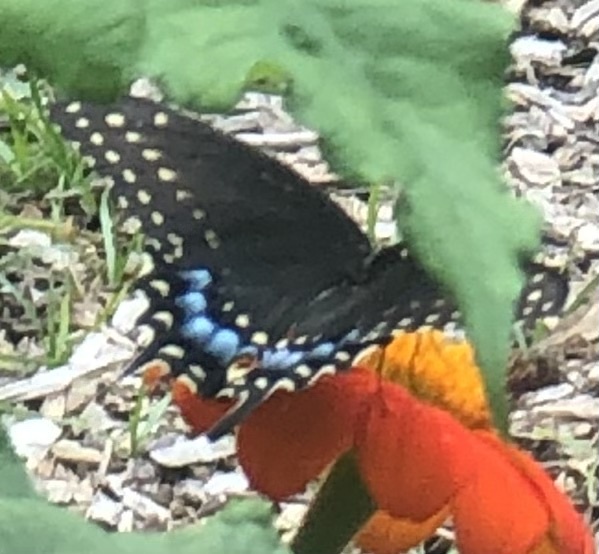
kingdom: Animalia
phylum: Arthropoda
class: Insecta
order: Lepidoptera
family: Papilionidae
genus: Papilio
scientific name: Papilio polyxenes
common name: Black swallowtail
